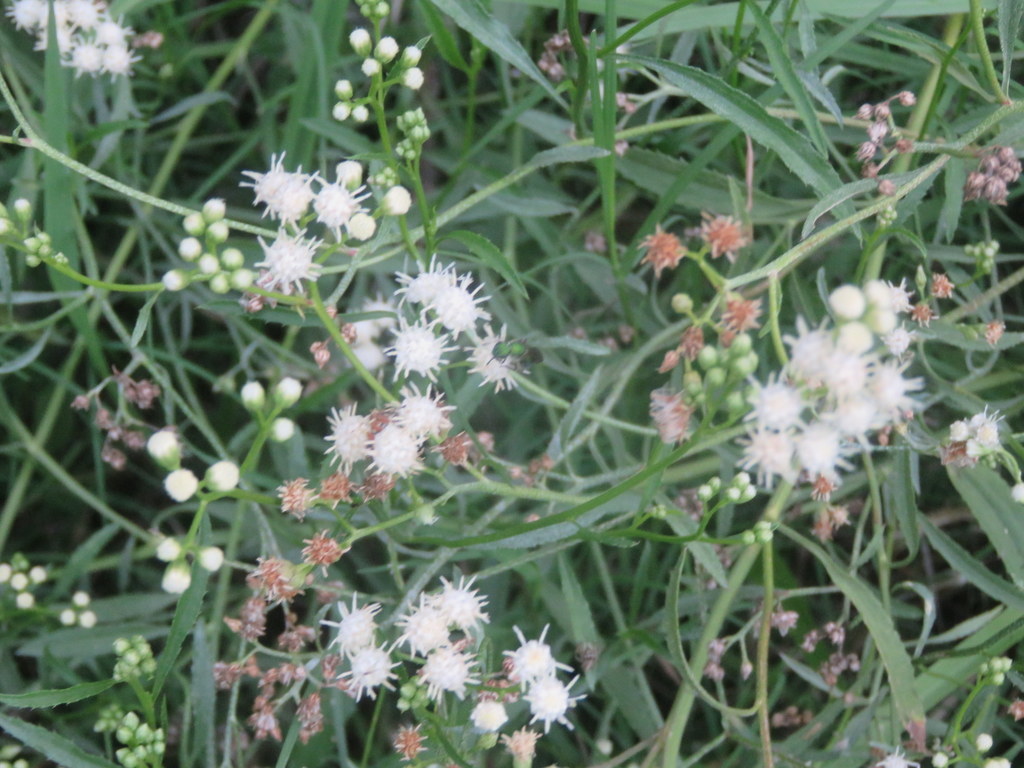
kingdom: Plantae
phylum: Tracheophyta
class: Magnoliopsida
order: Asterales
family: Asteraceae
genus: Baccharis
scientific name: Baccharis glutinosa
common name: Saltmarsh baccharis
